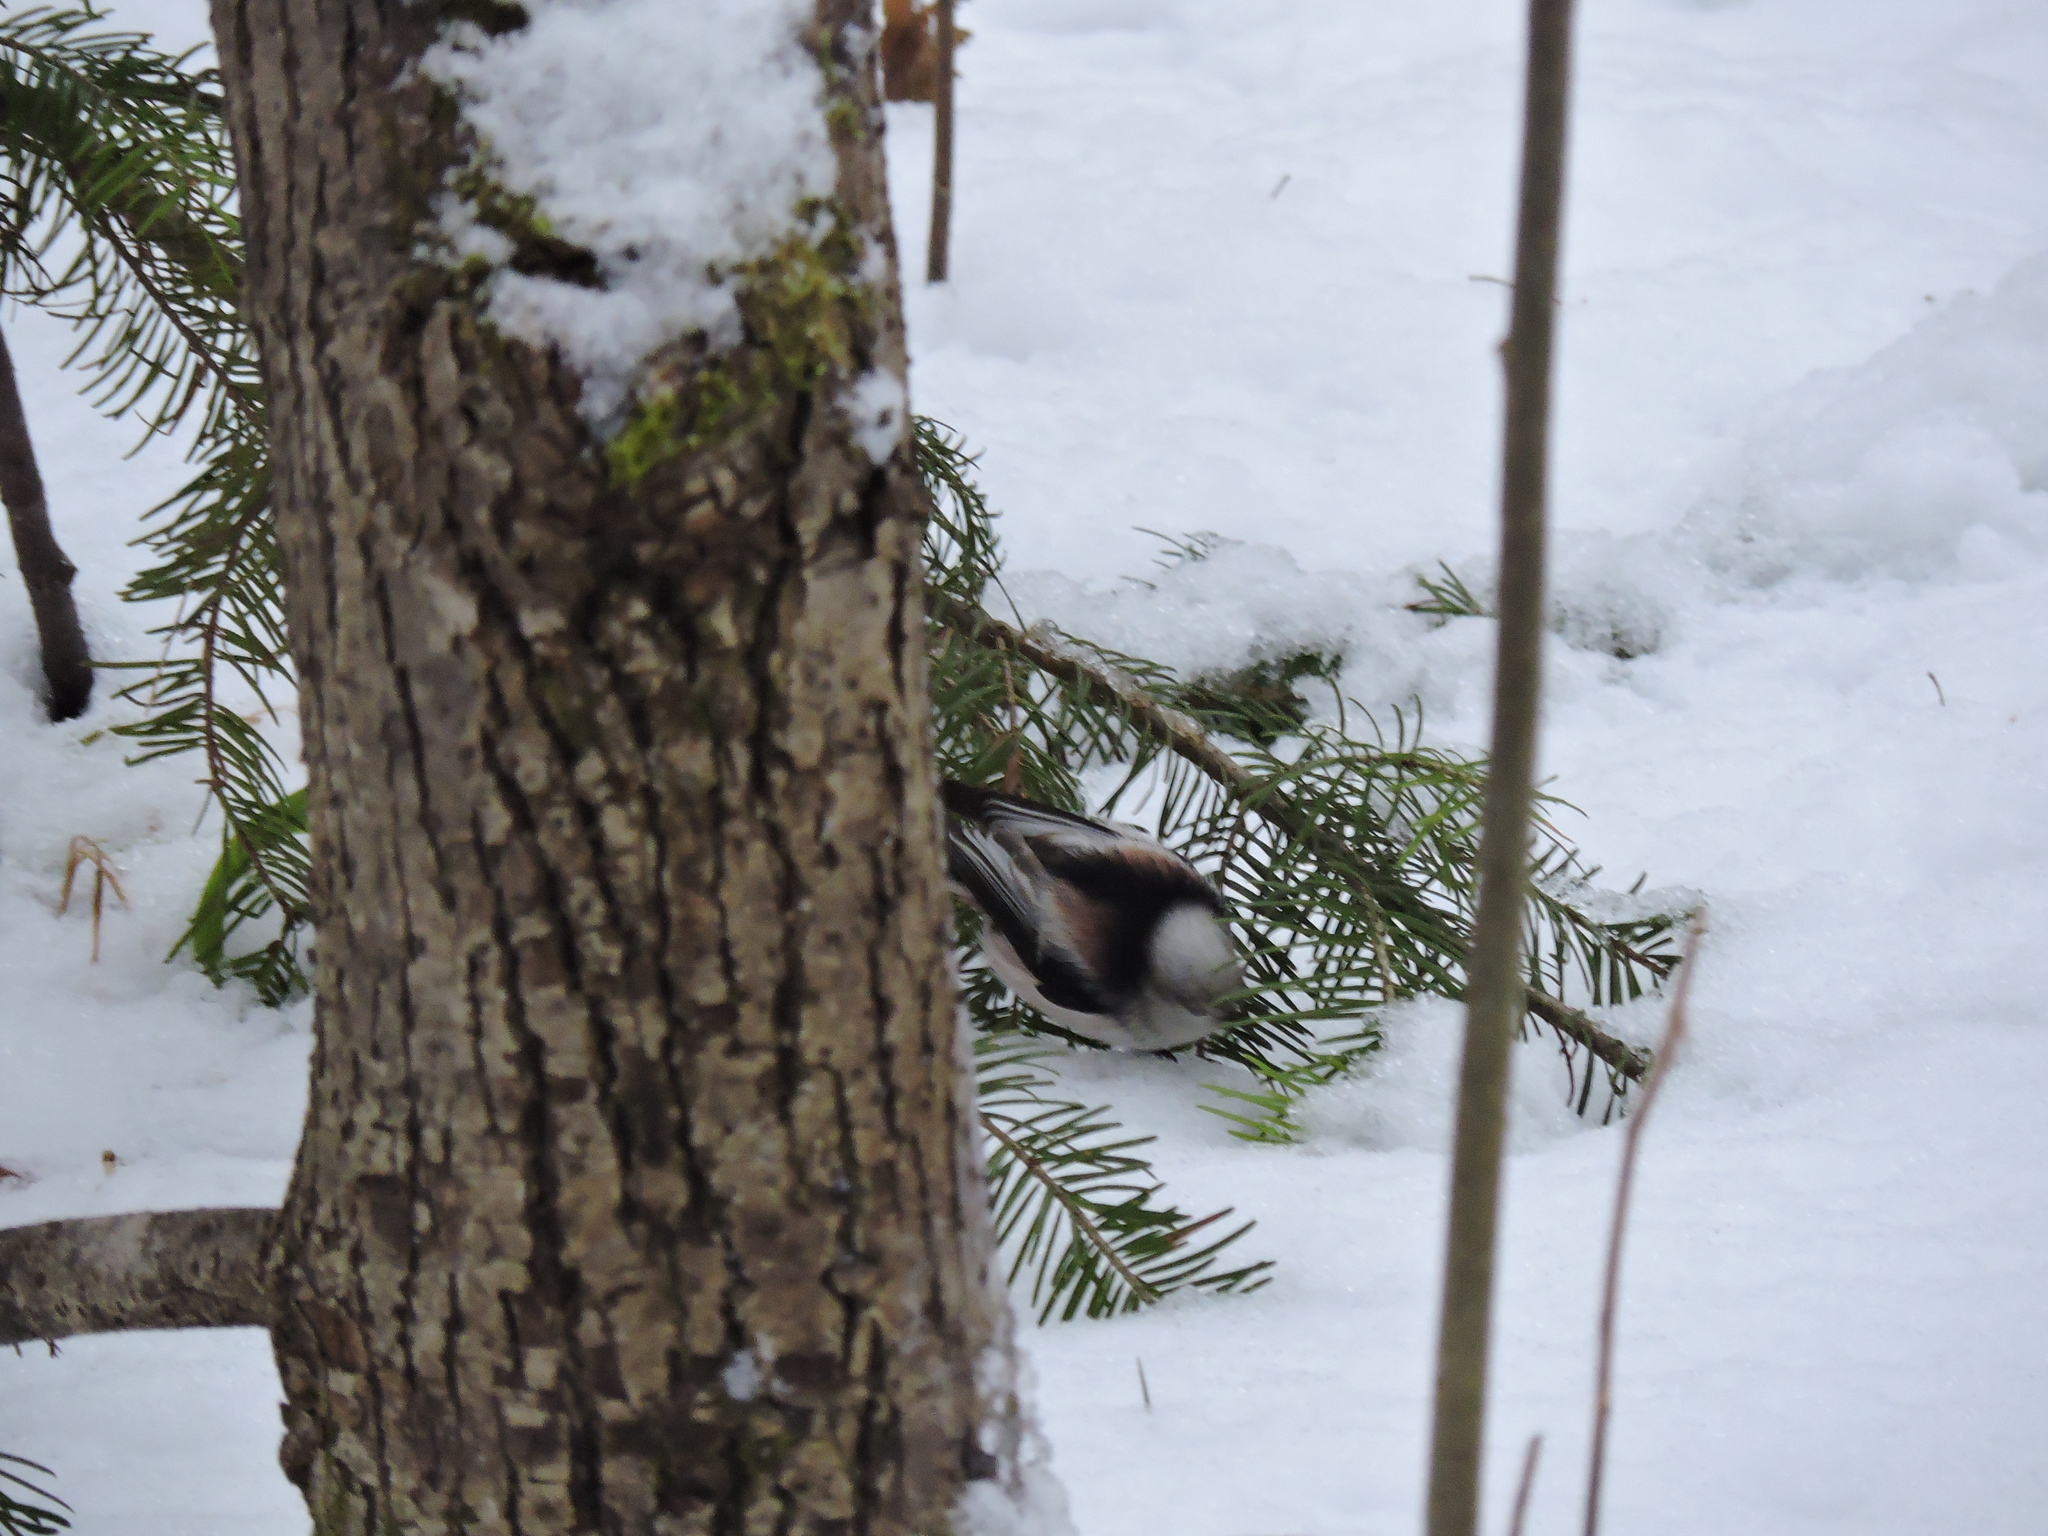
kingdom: Animalia
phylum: Chordata
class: Aves
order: Passeriformes
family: Aegithalidae
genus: Aegithalos
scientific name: Aegithalos caudatus
